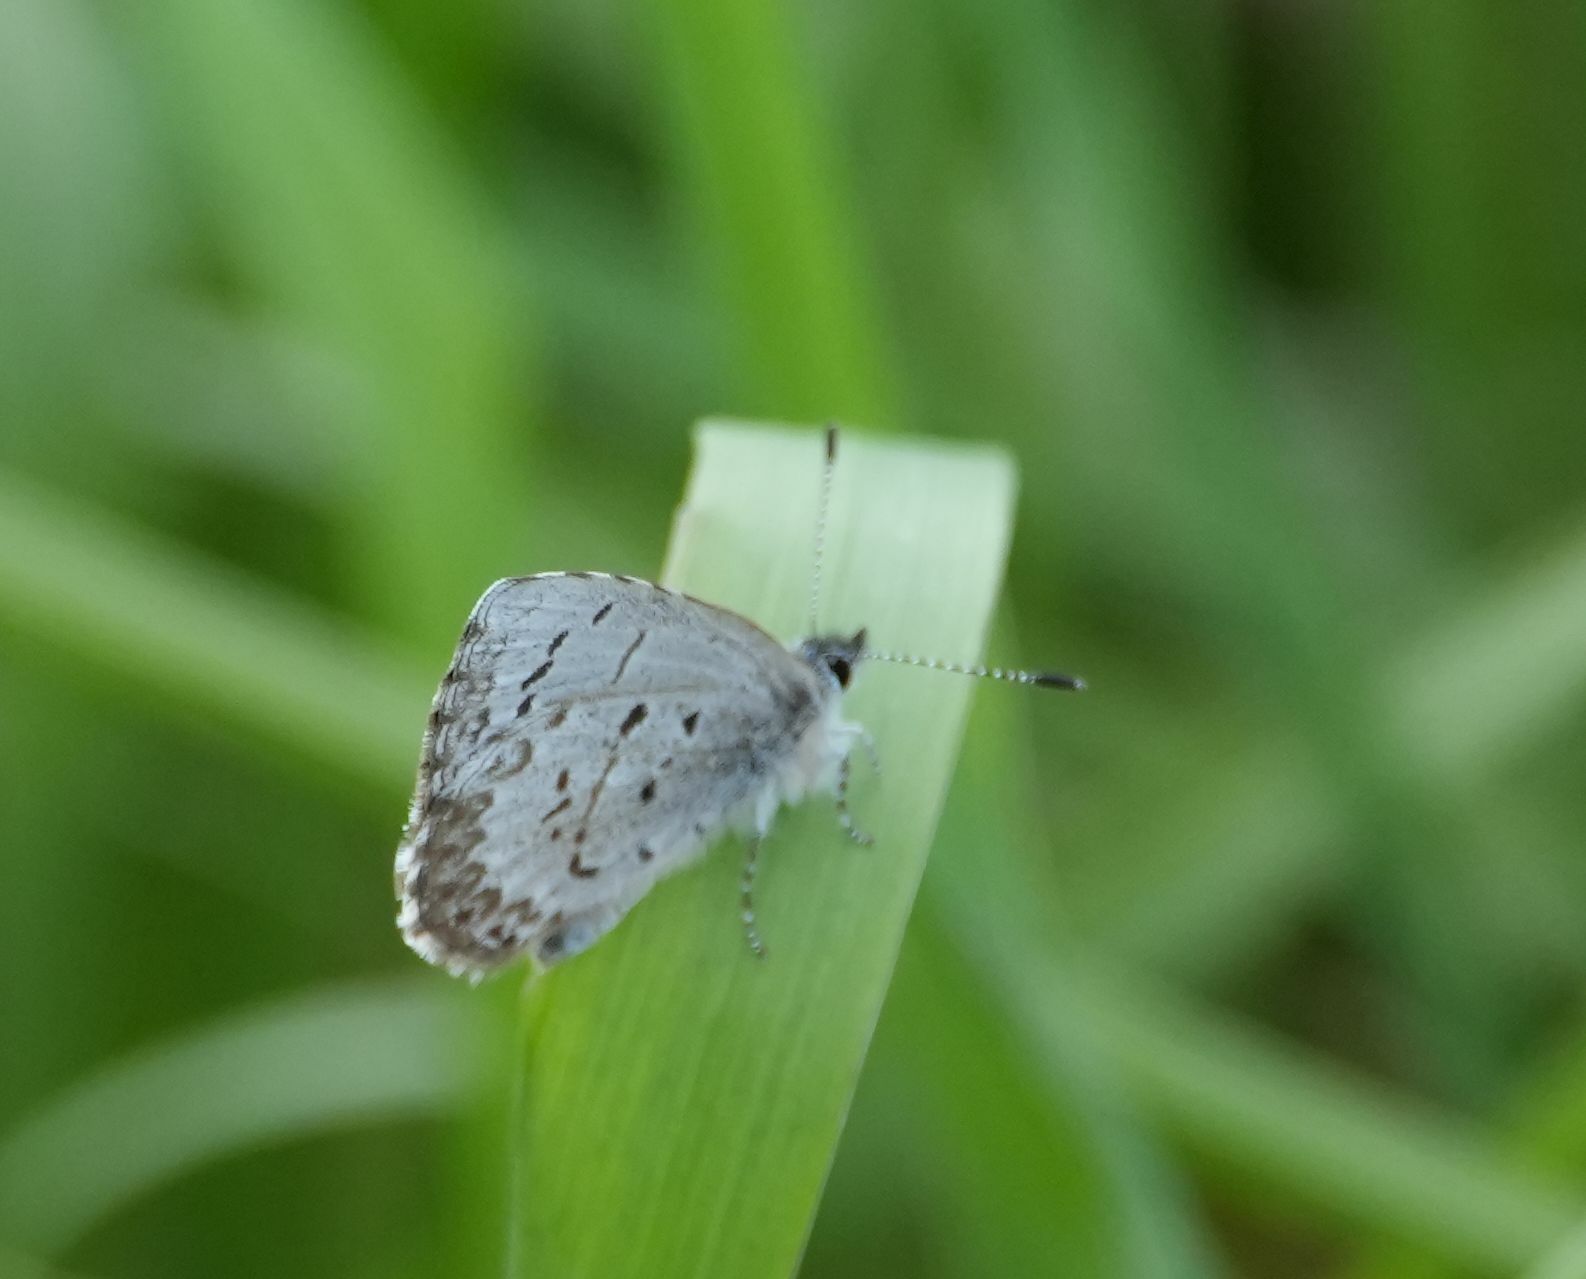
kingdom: Animalia
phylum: Arthropoda
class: Insecta
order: Lepidoptera
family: Lycaenidae
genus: Celastrina
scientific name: Celastrina lucia
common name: Lucia azure
